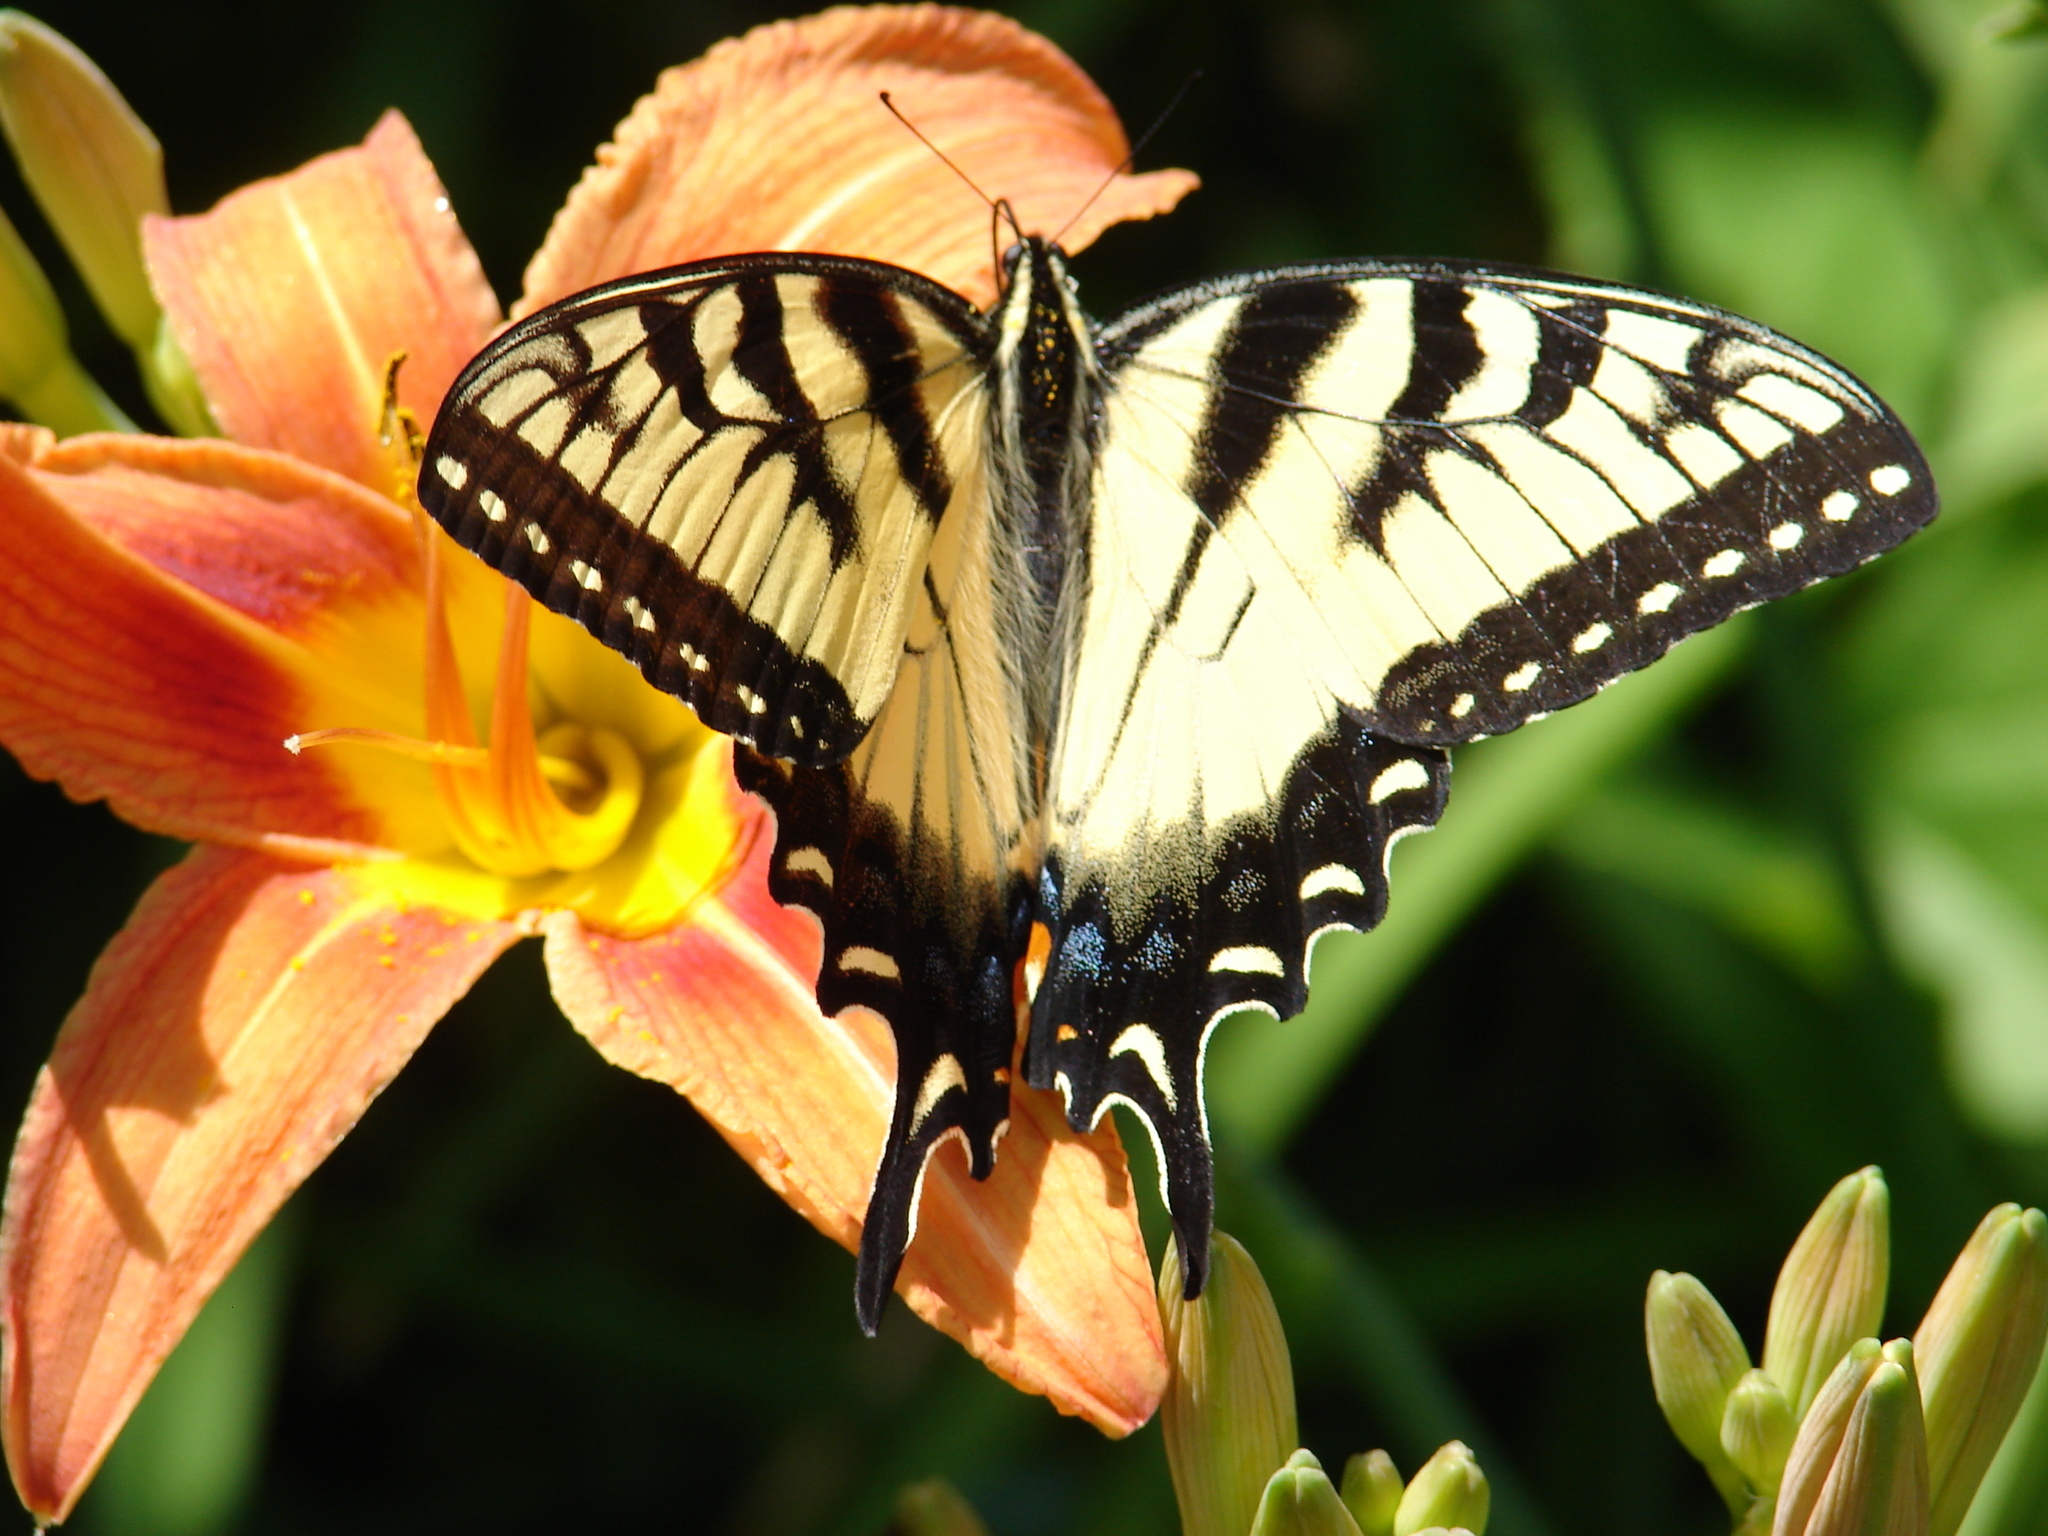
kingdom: Animalia
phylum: Arthropoda
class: Insecta
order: Lepidoptera
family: Papilionidae
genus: Papilio
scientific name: Papilio
